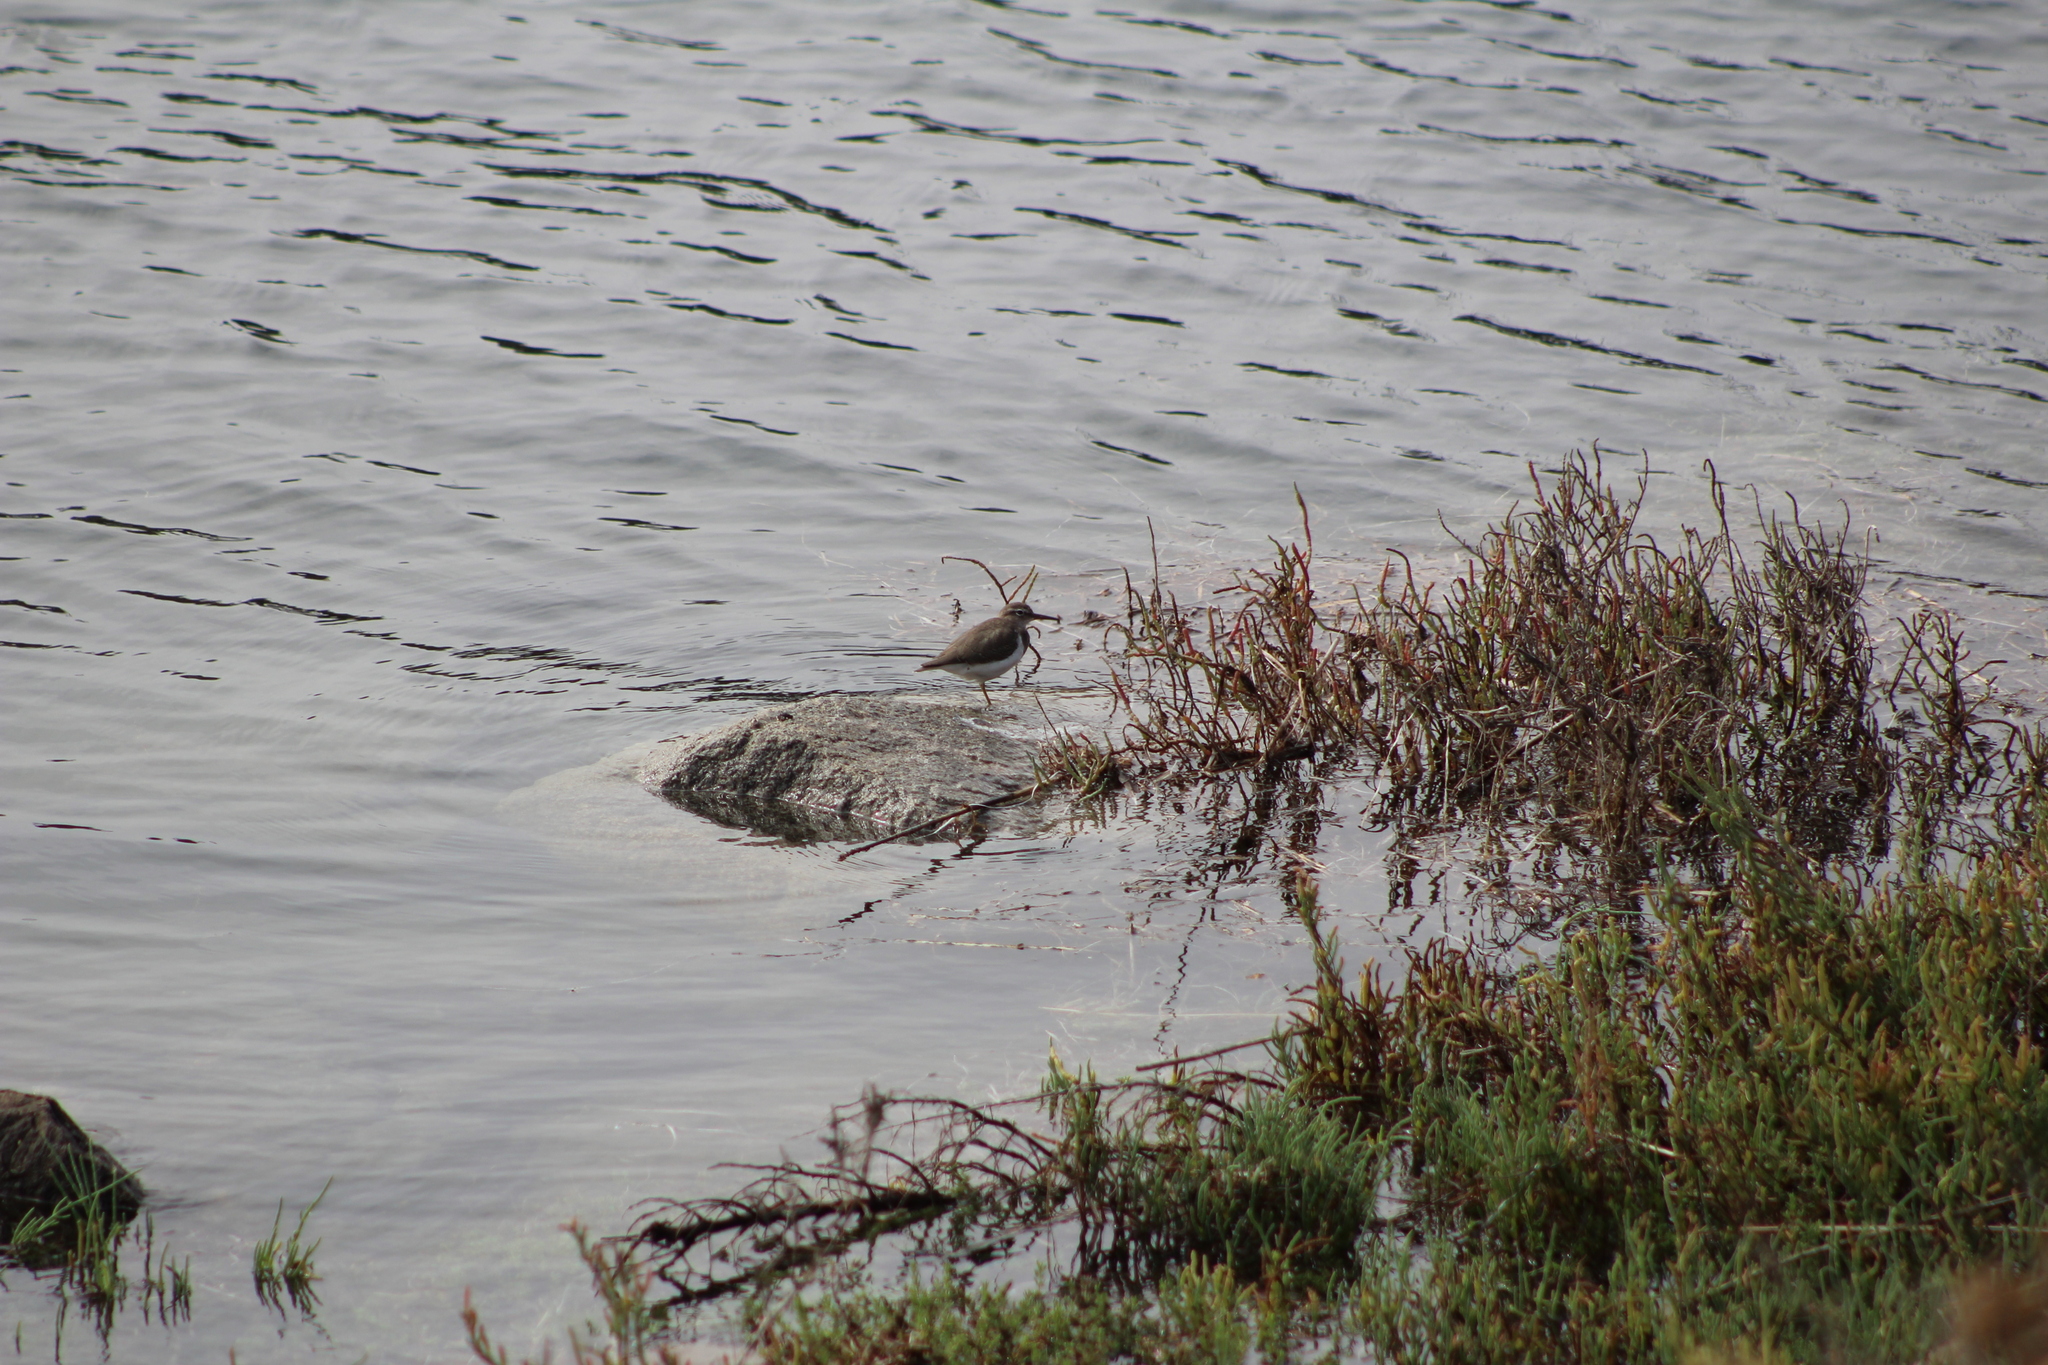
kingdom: Animalia
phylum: Chordata
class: Aves
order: Charadriiformes
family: Scolopacidae
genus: Tringa
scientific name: Tringa semipalmata
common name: Willet
